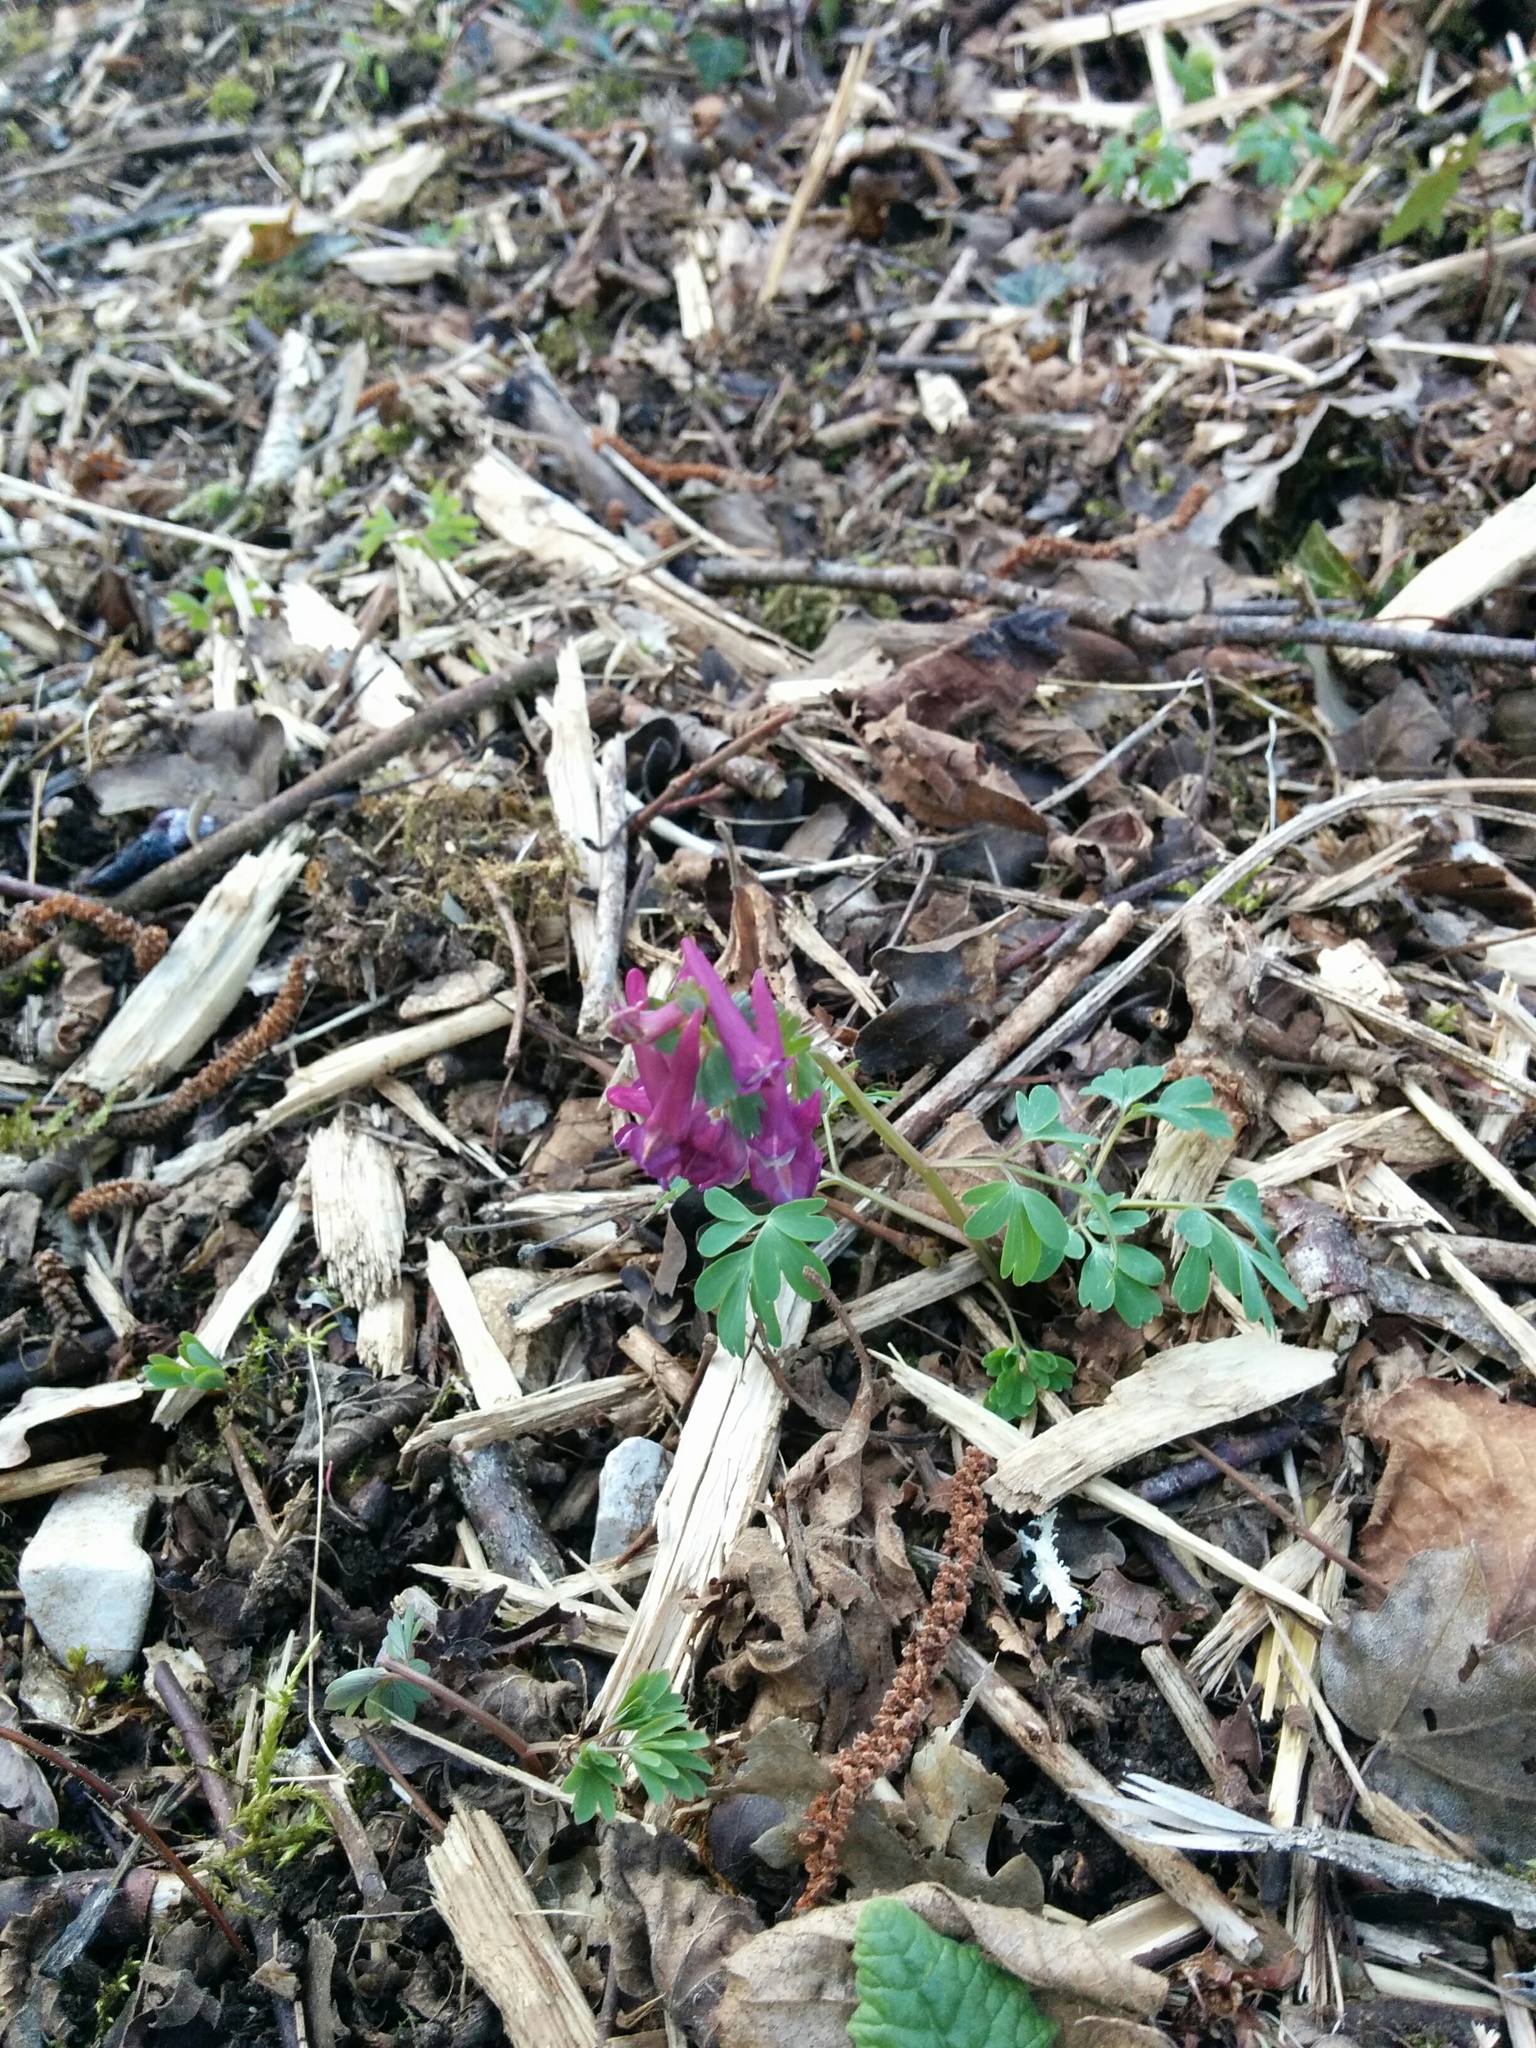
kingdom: Plantae
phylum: Tracheophyta
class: Magnoliopsida
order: Ranunculales
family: Papaveraceae
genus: Corydalis
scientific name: Corydalis solida
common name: Bird-in-a-bush
